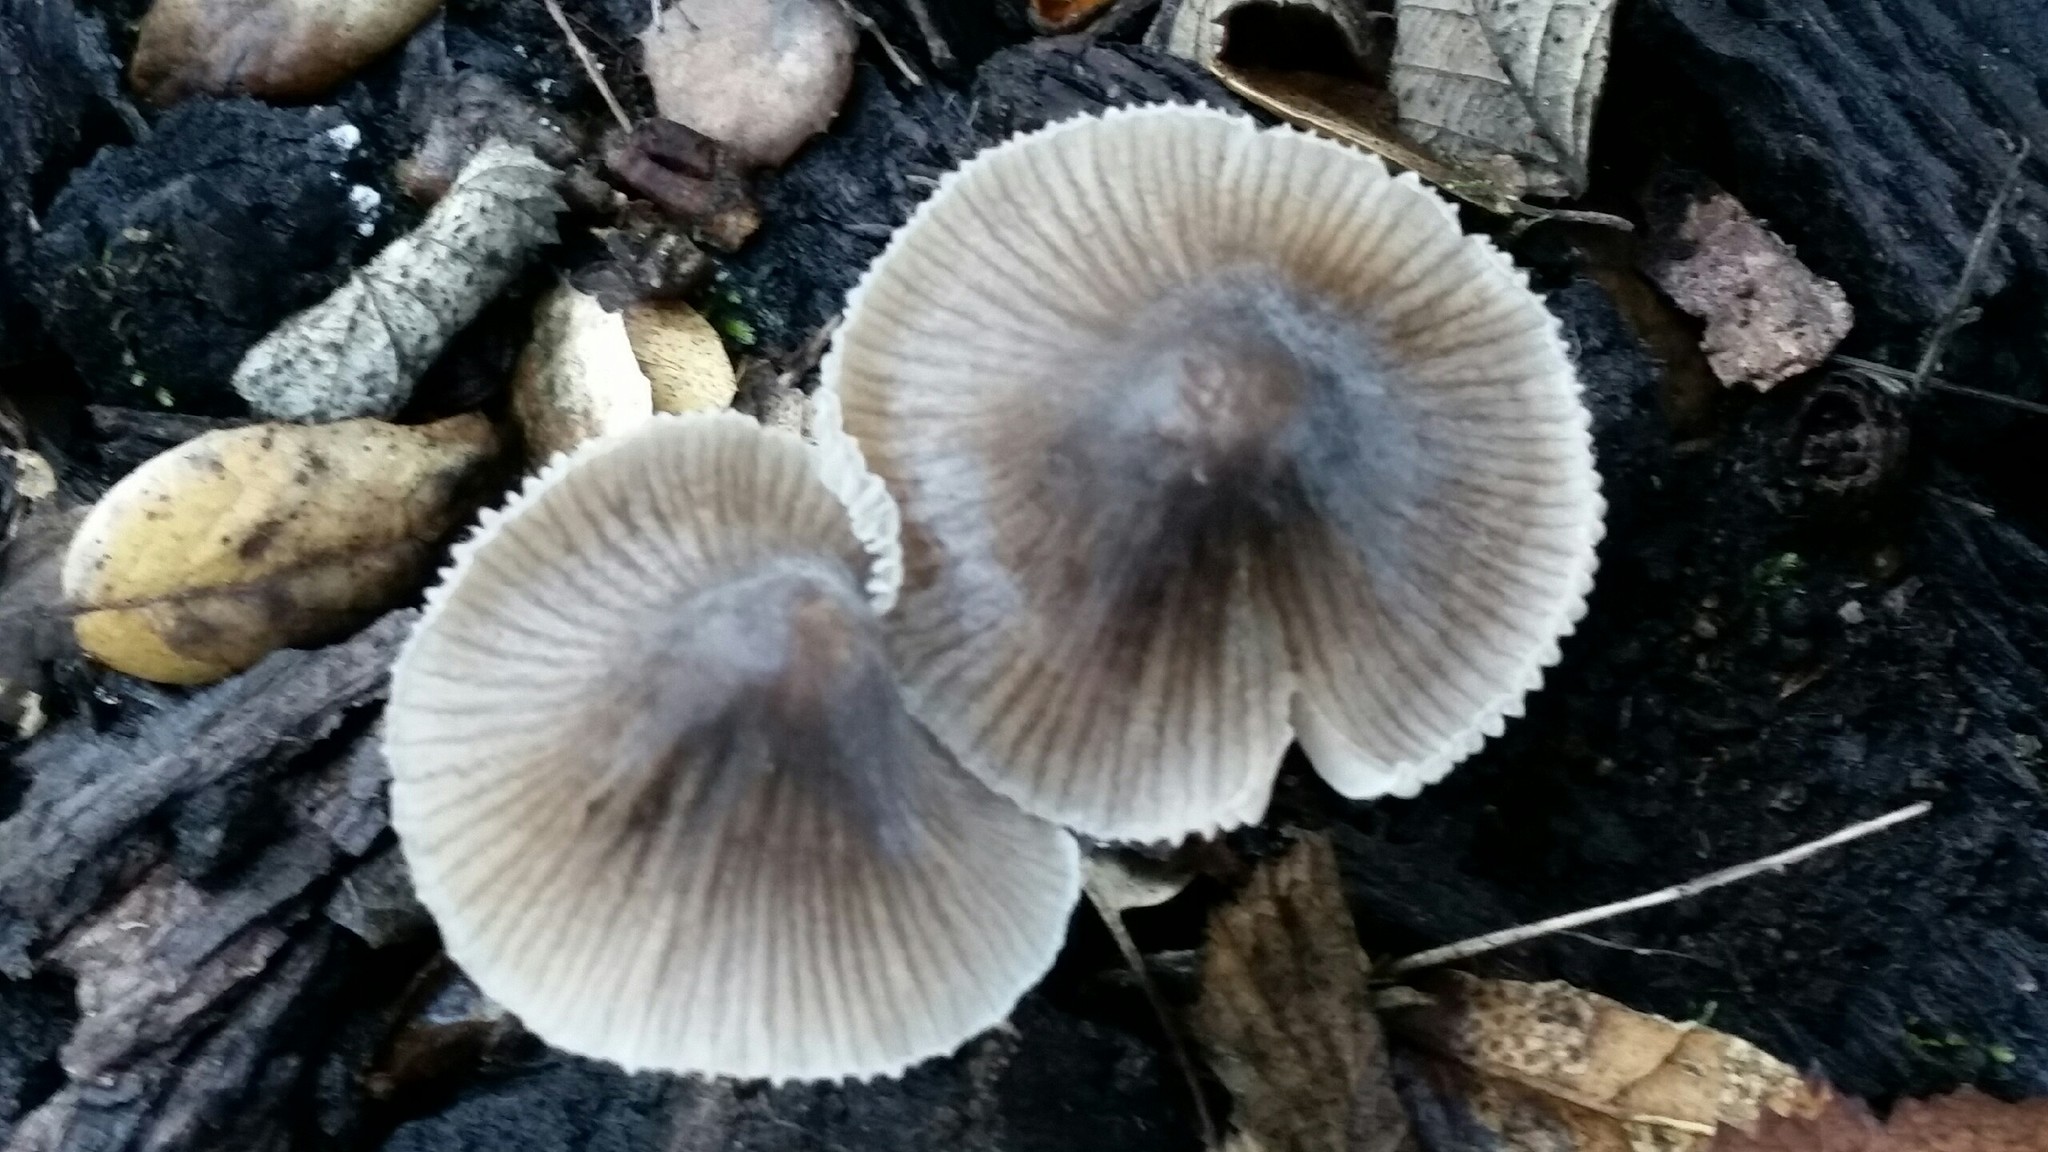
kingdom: Fungi
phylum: Basidiomycota
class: Agaricomycetes
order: Agaricales
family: Mycenaceae
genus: Mycena
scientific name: Mycena leptocephala
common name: Nitrous bonnet
